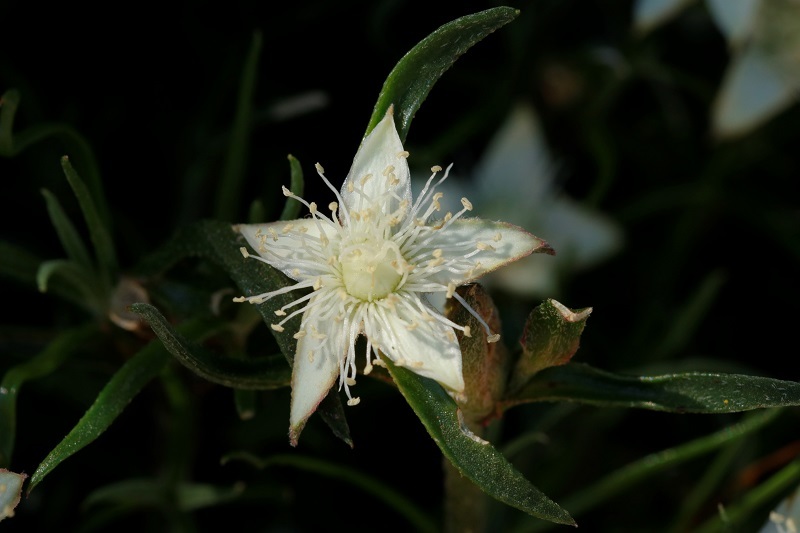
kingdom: Plantae
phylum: Tracheophyta
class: Magnoliopsida
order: Caryophyllales
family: Aizoaceae
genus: Acrosanthes
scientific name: Acrosanthes teretifolia
